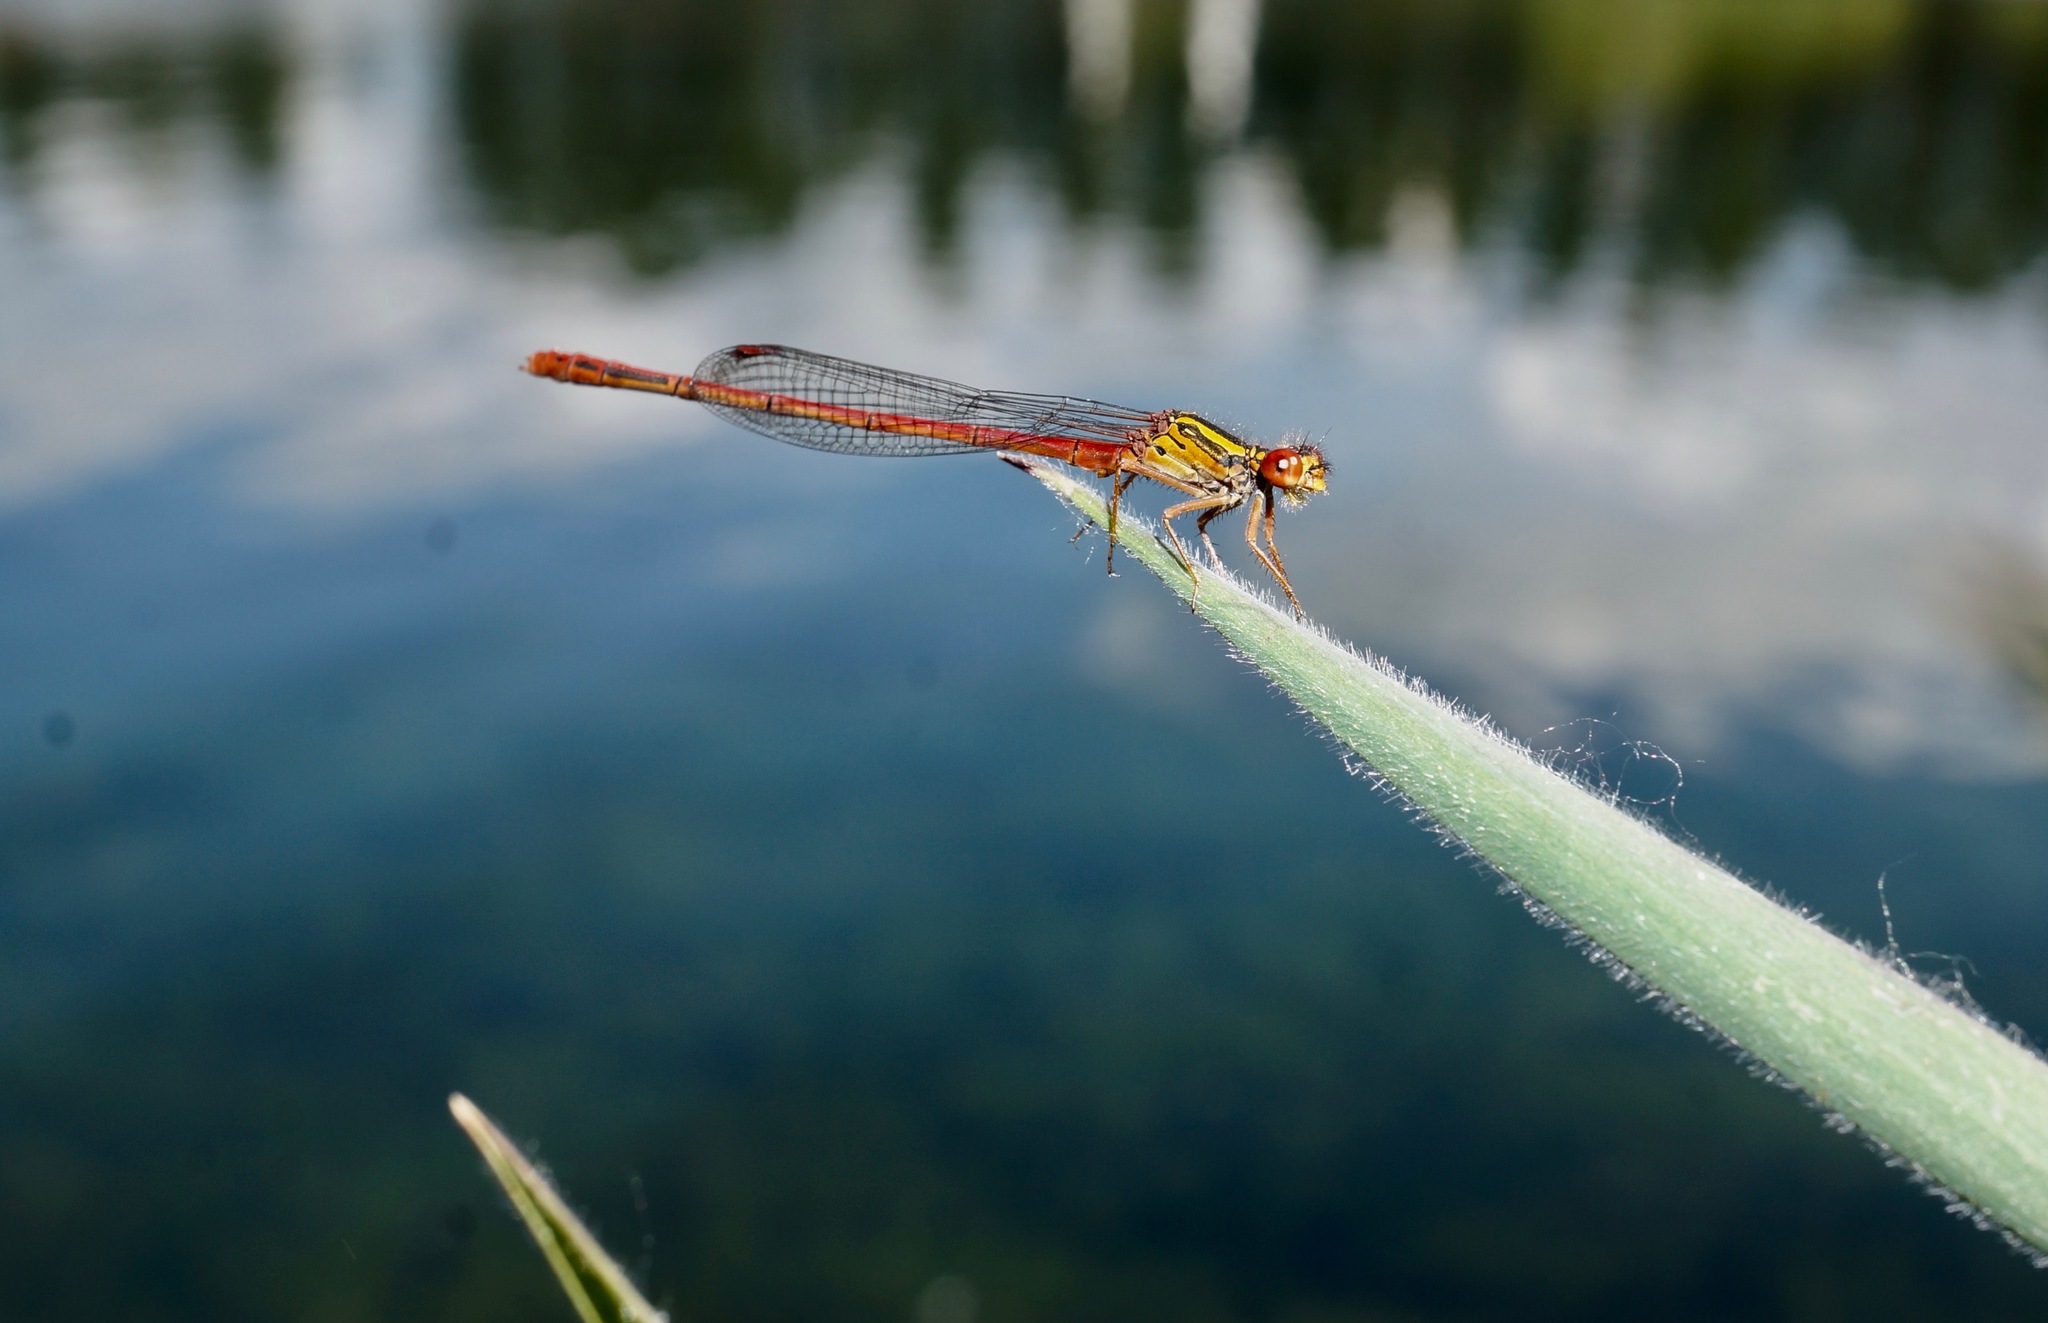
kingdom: Animalia
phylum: Arthropoda
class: Insecta
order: Odonata
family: Coenagrionidae
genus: Xanthocnemis
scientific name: Xanthocnemis zealandica
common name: Common redcoat damselfly
